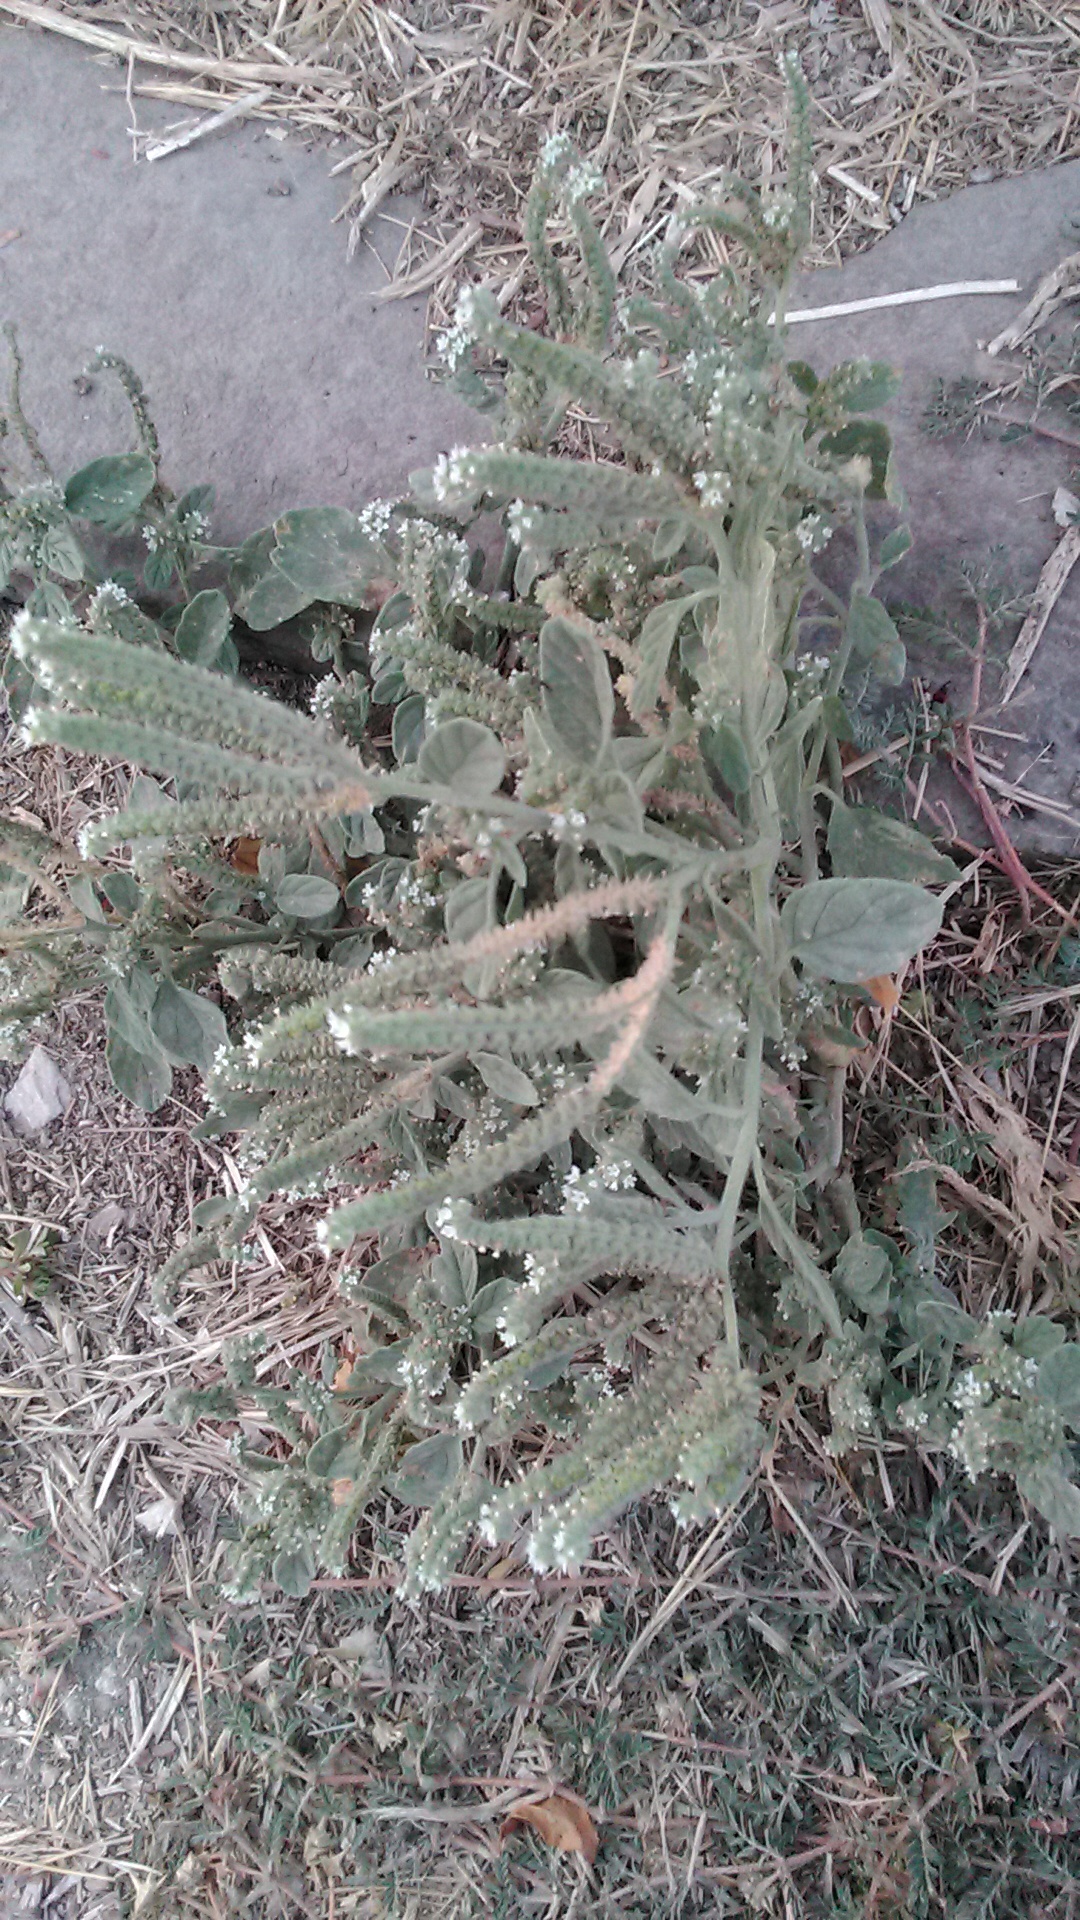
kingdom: Plantae
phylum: Tracheophyta
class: Magnoliopsida
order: Boraginales
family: Heliotropiaceae
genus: Heliotropium
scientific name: Heliotropium europaeum
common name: European heliotrope
